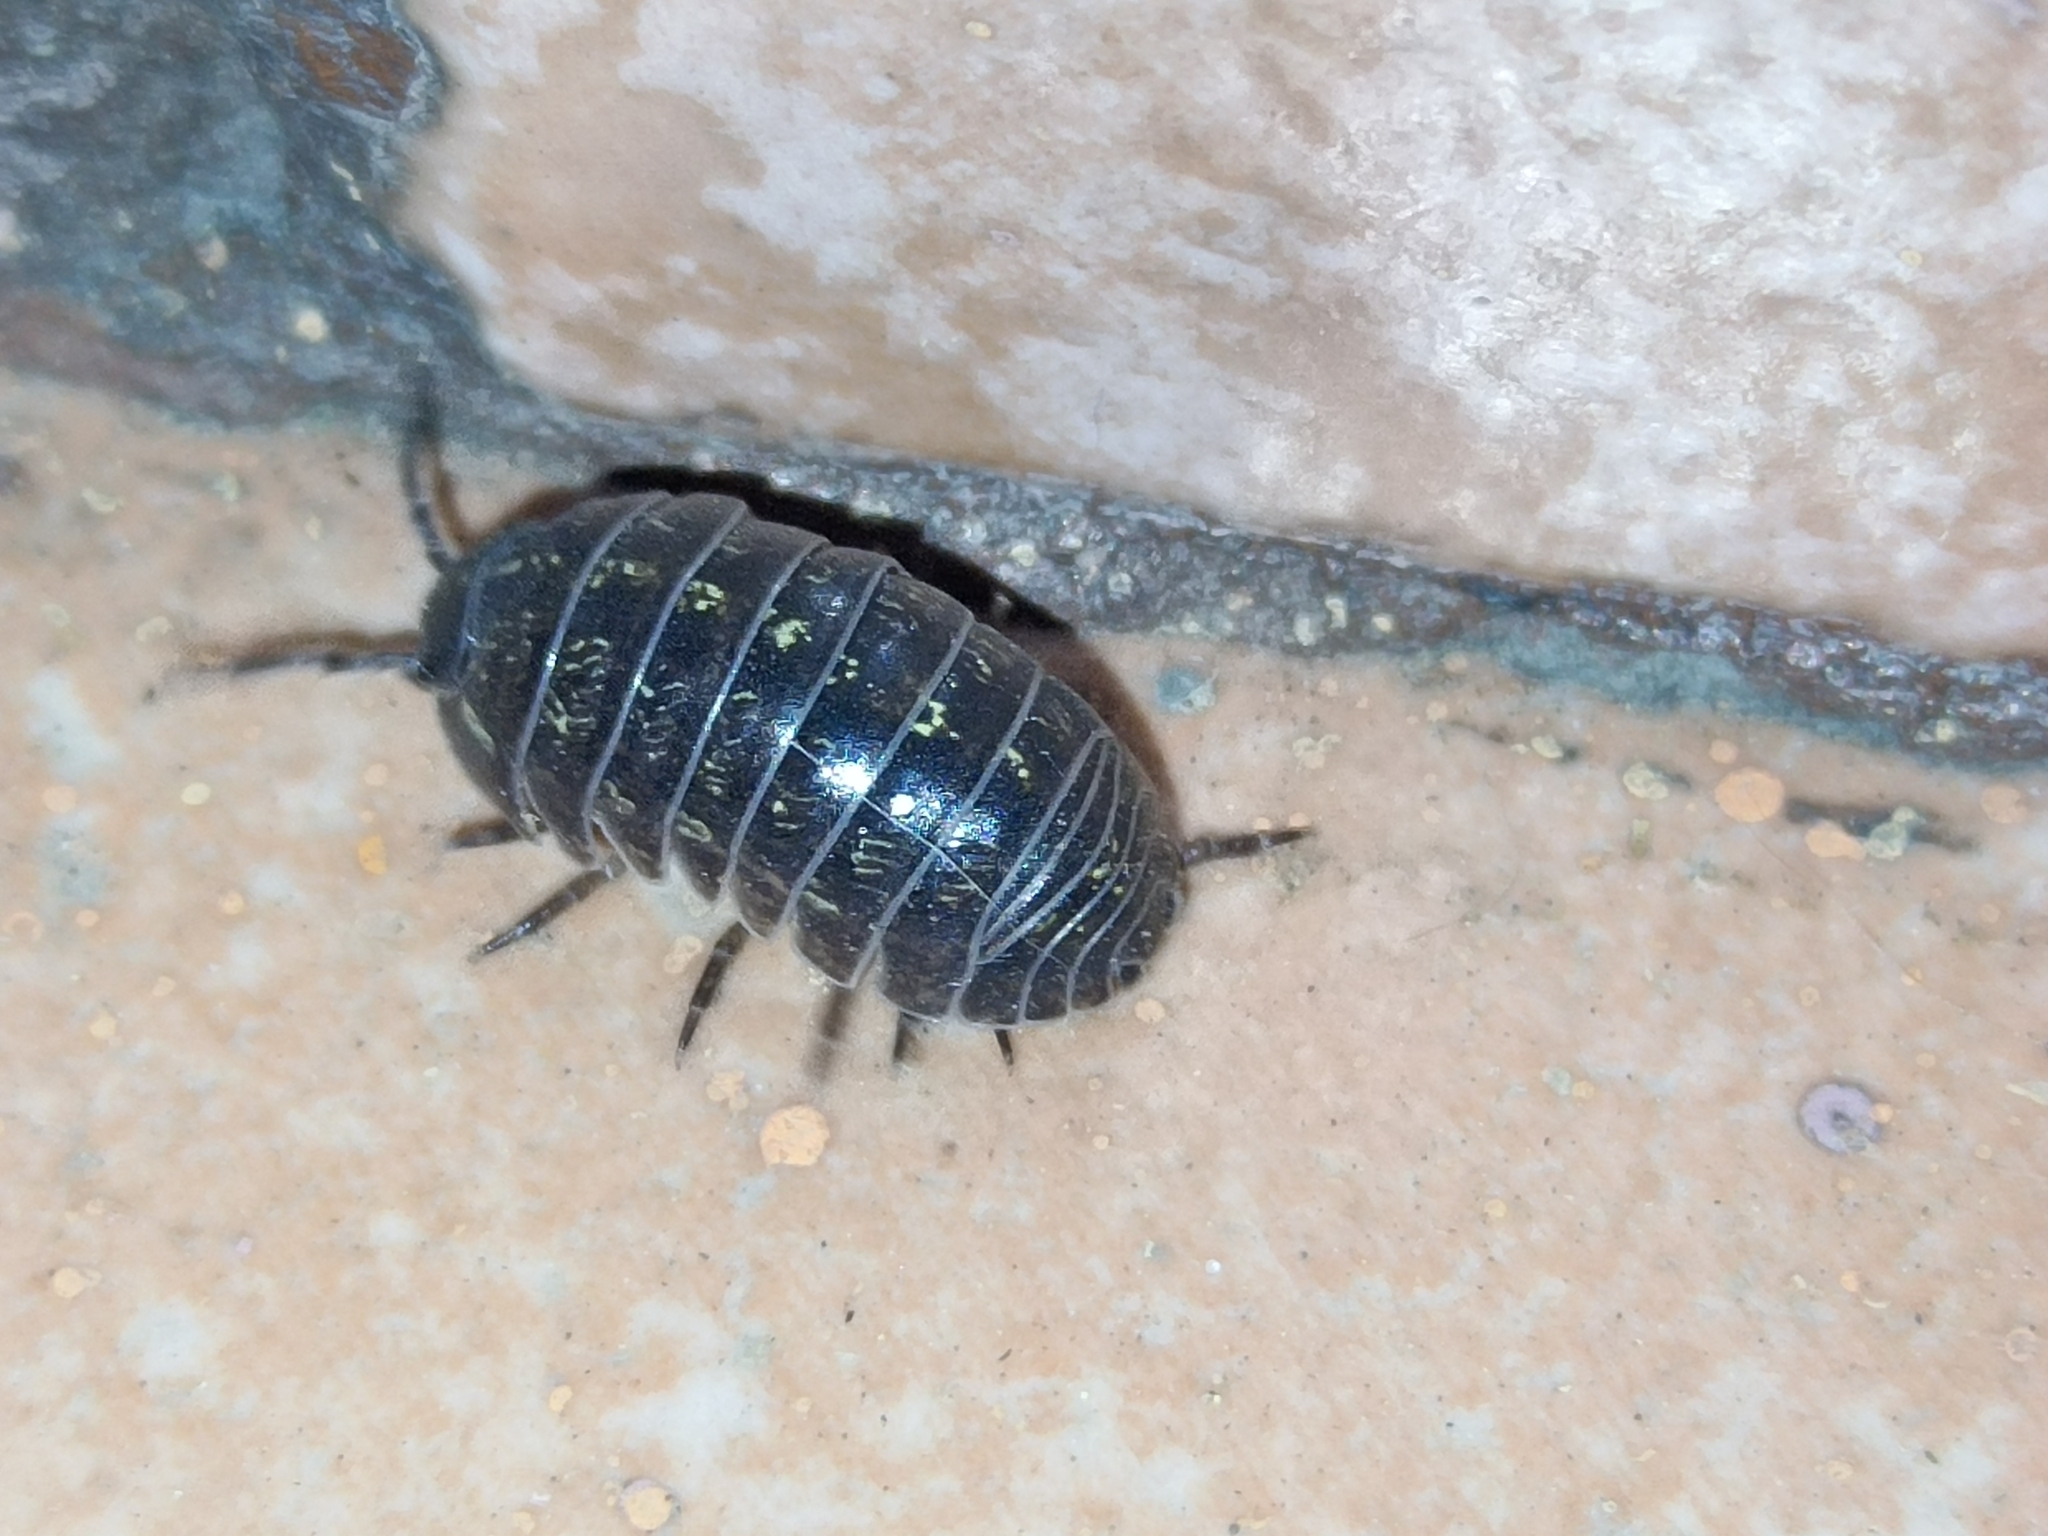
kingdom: Animalia
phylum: Arthropoda
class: Malacostraca
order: Isopoda
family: Armadillidiidae
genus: Armadillidium
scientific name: Armadillidium vulgare
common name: Common pill woodlouse
